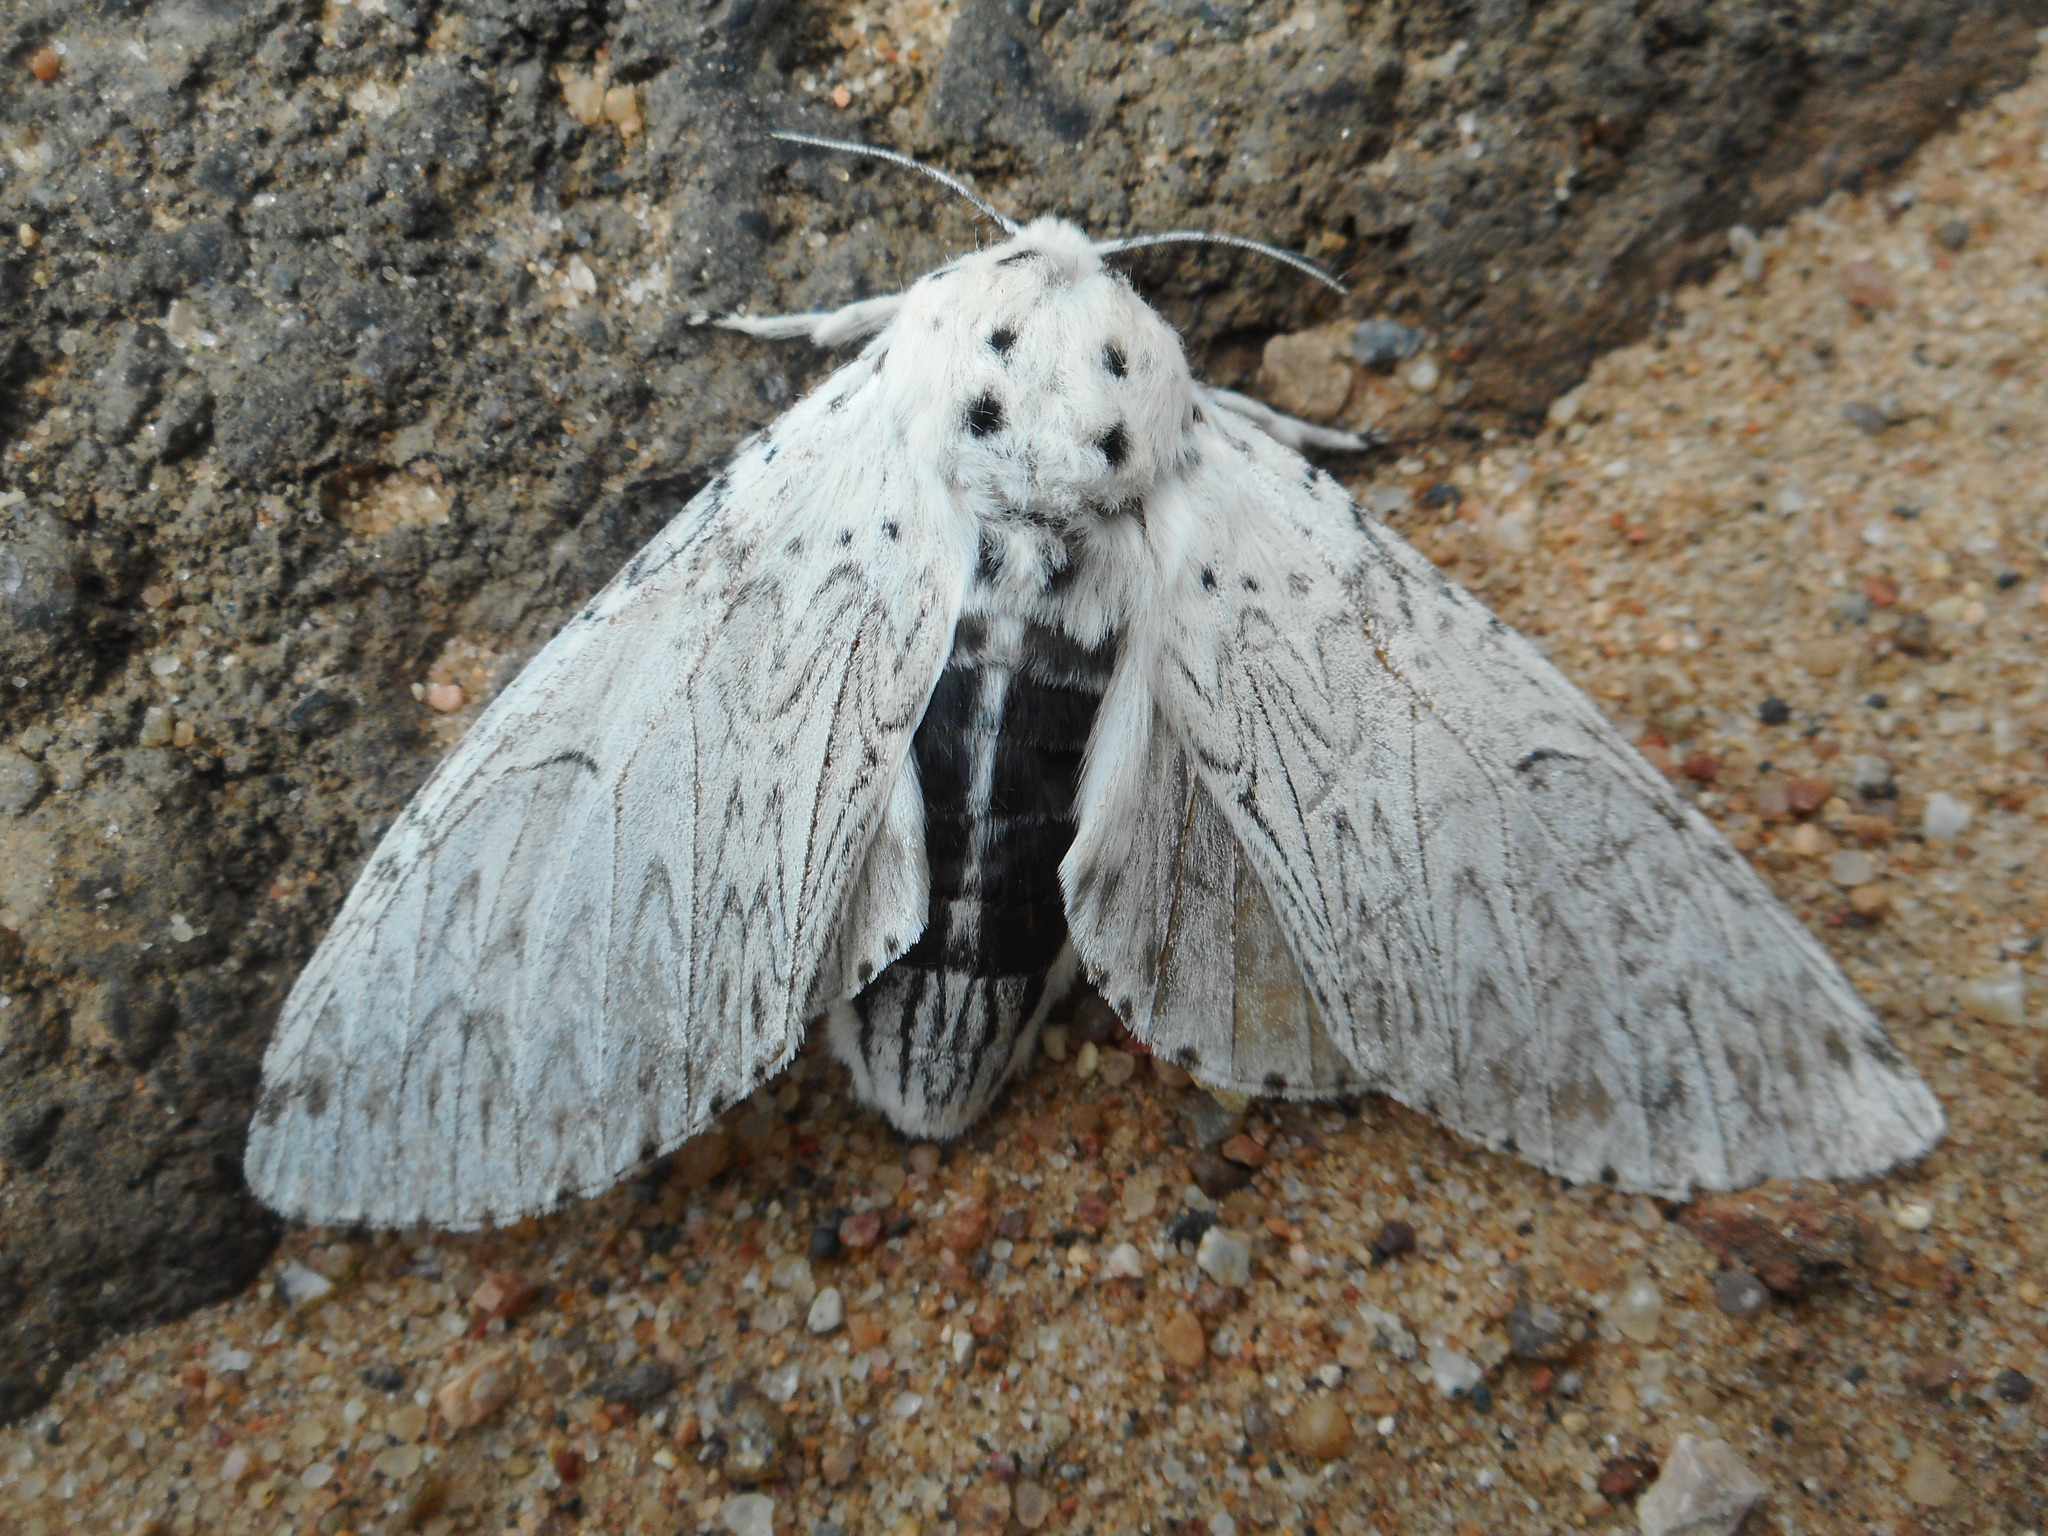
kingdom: Animalia
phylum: Arthropoda
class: Insecta
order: Lepidoptera
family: Notodontidae
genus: Cerura
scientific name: Cerura erminea
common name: Lesser puss moth
